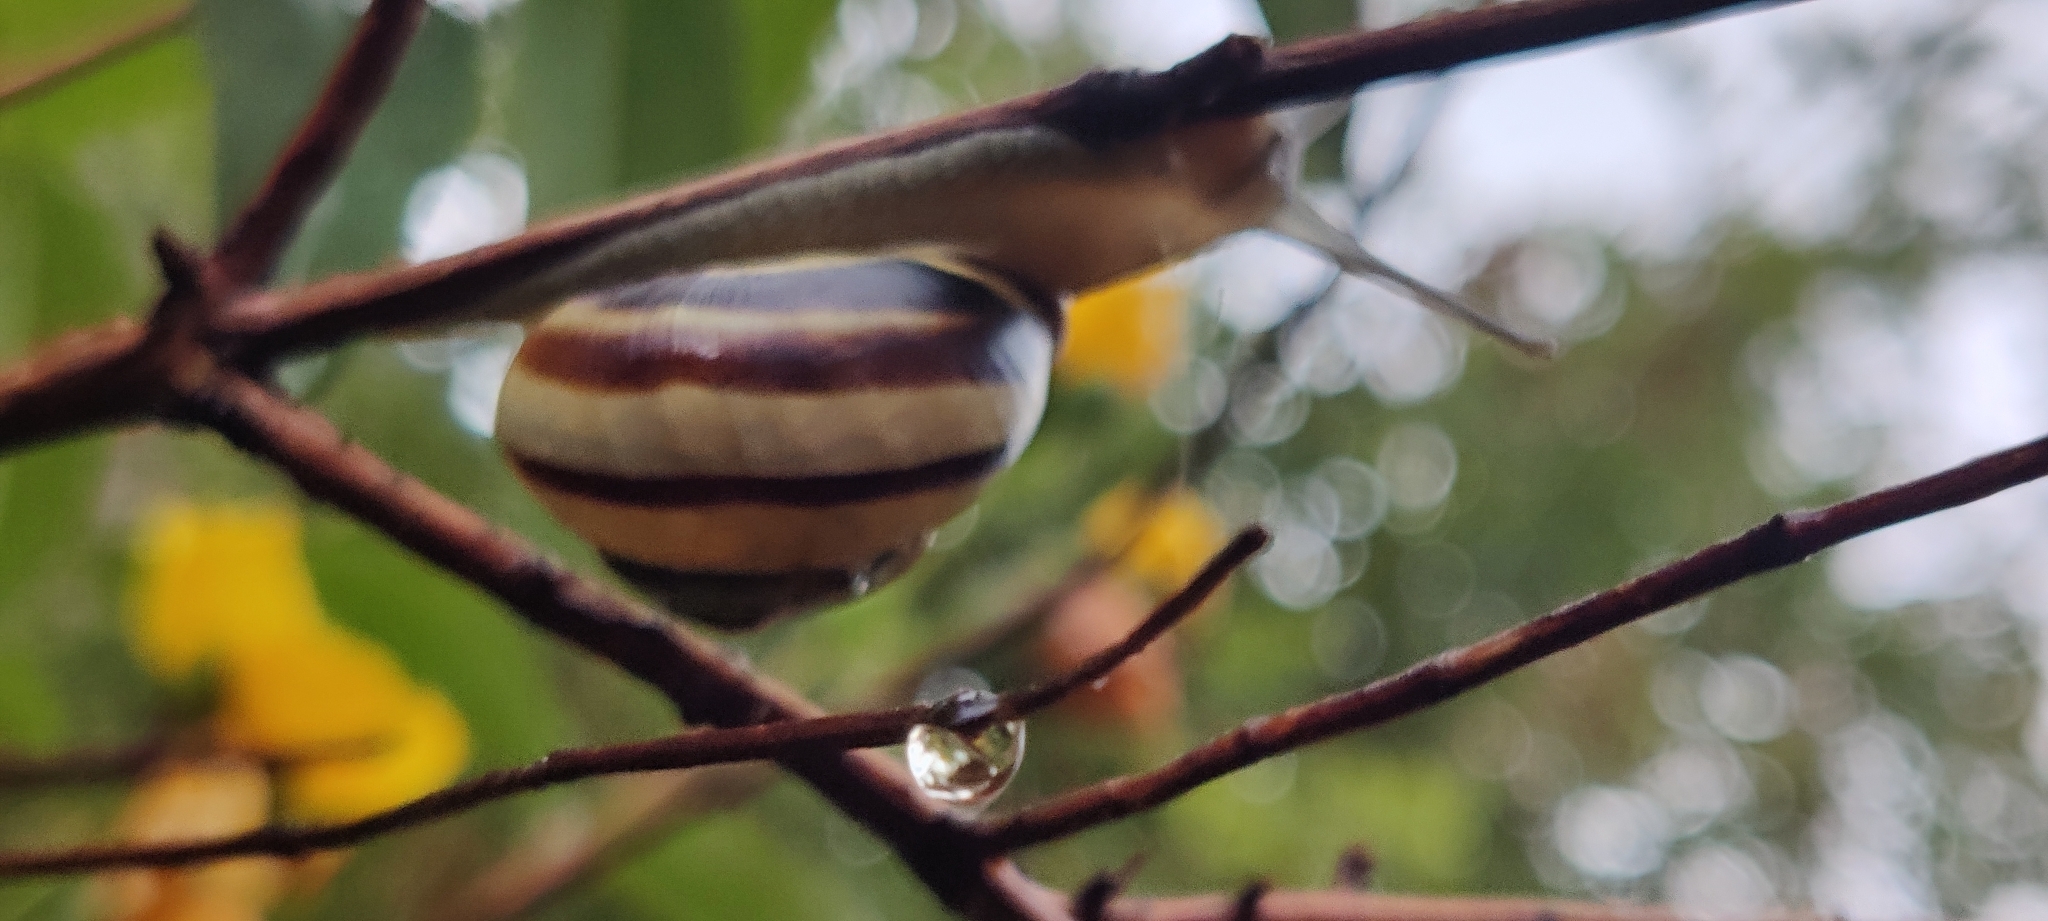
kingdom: Animalia
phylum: Mollusca
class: Gastropoda
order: Stylommatophora
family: Helicidae
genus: Cepaea
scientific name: Cepaea nemoralis
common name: Grovesnail
